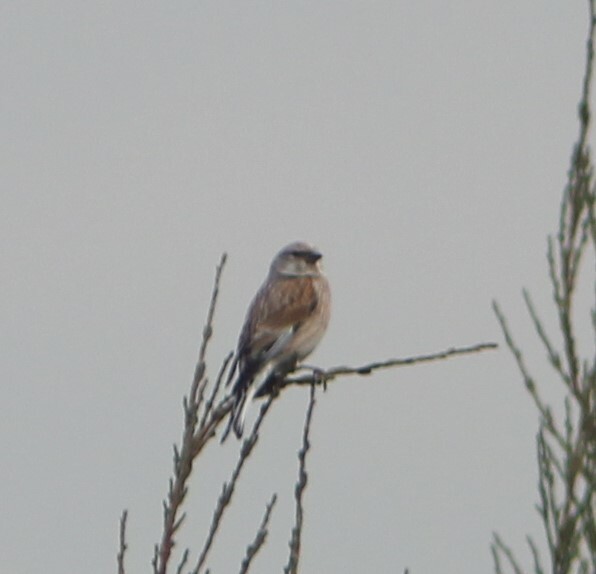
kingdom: Animalia
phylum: Chordata
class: Aves
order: Passeriformes
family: Fringillidae
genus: Linaria
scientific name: Linaria cannabina
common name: Common linnet
